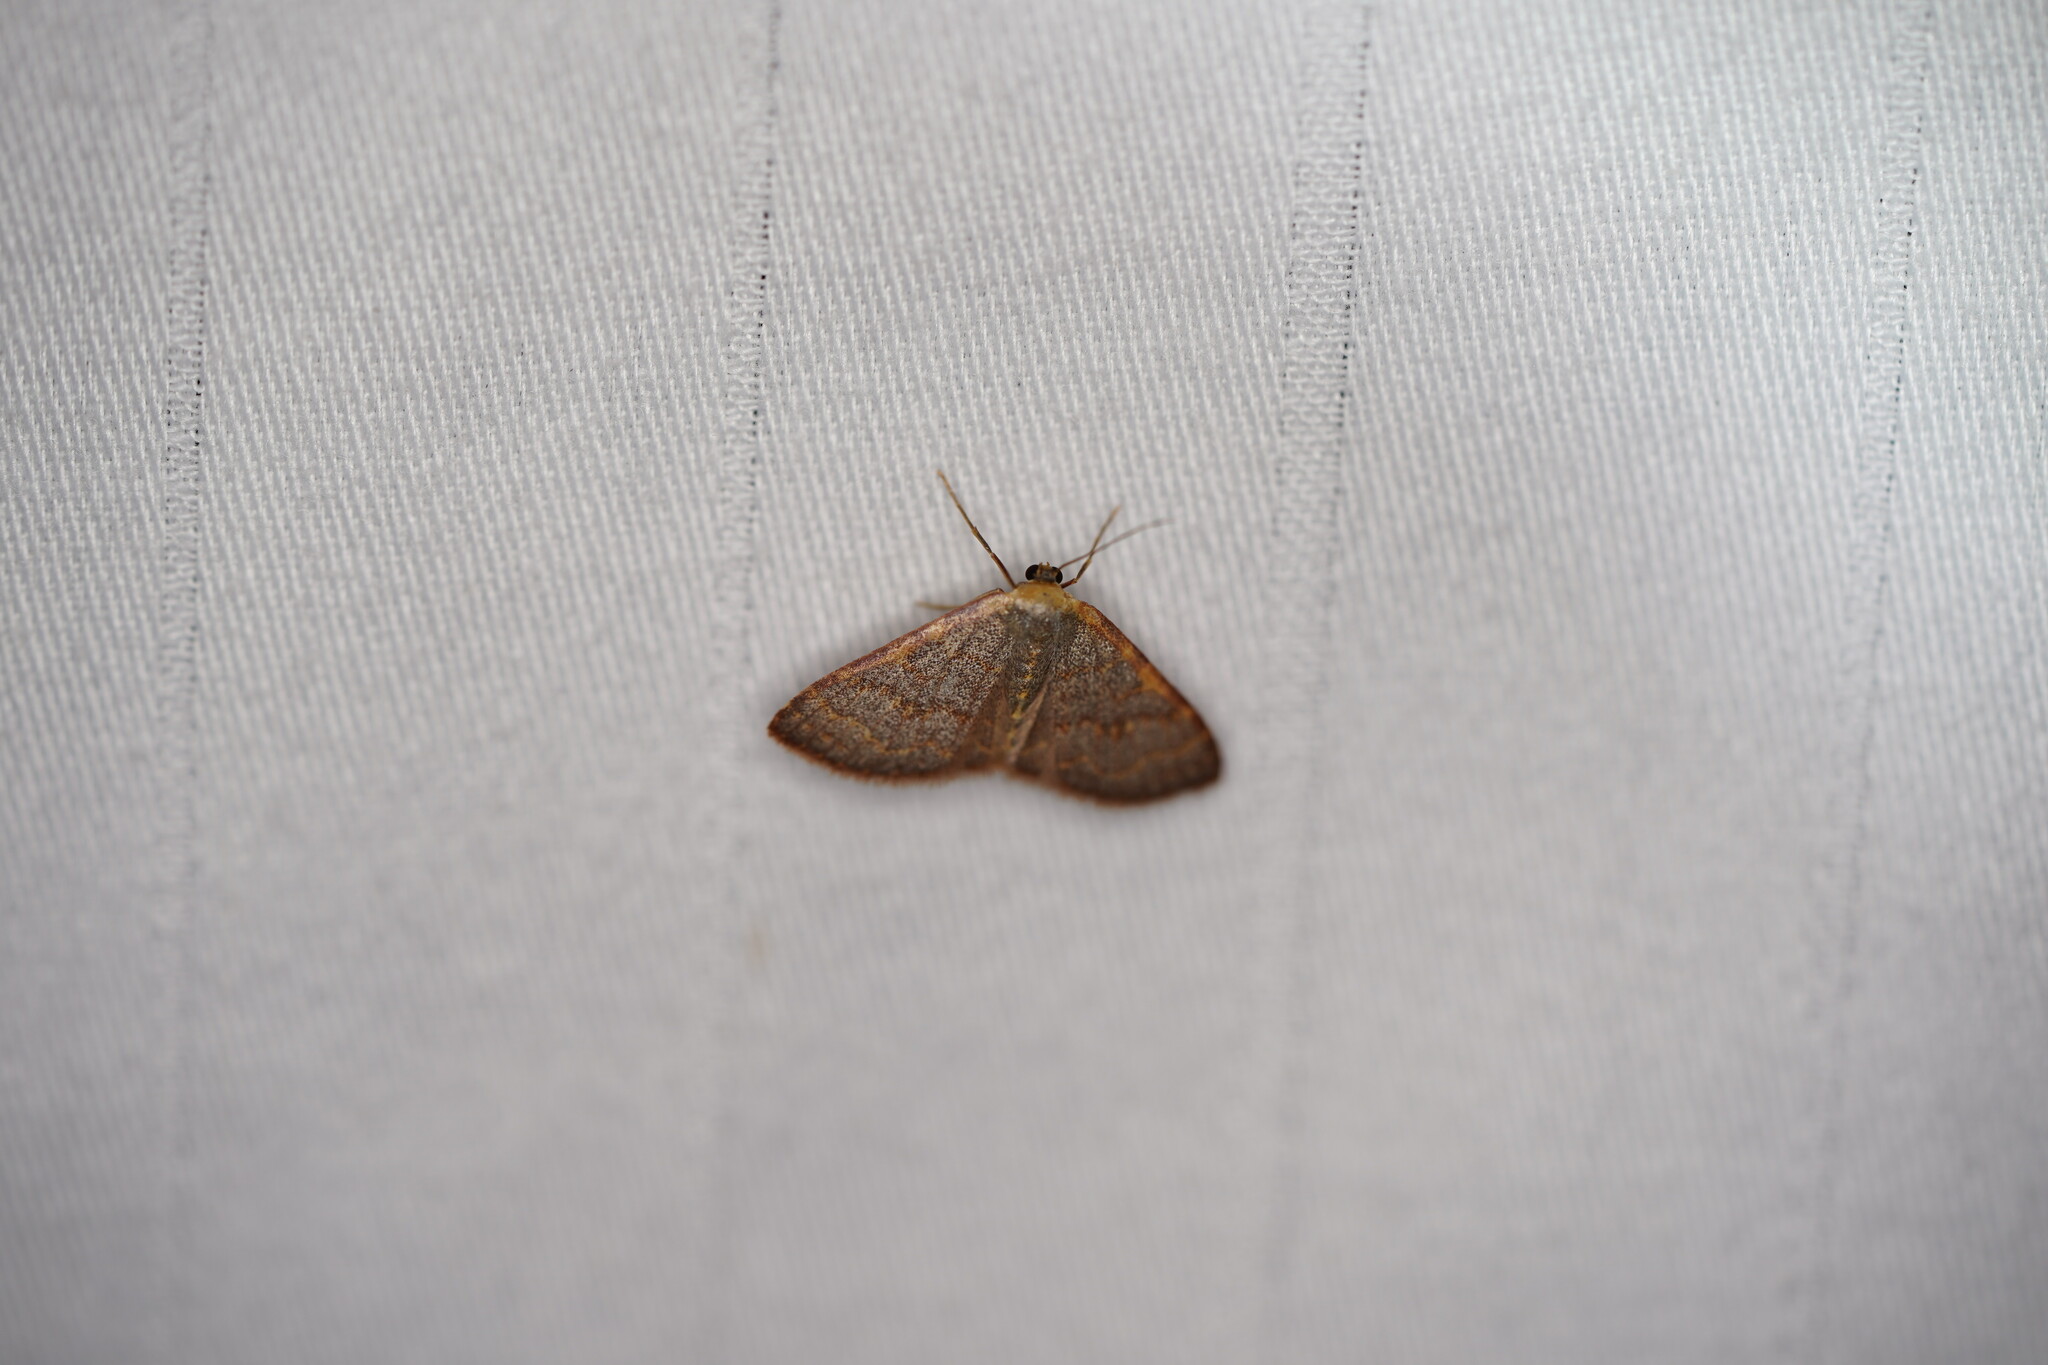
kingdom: Animalia
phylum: Arthropoda
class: Insecta
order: Lepidoptera
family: Geometridae
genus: Leptostales
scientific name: Leptostales pannaria
